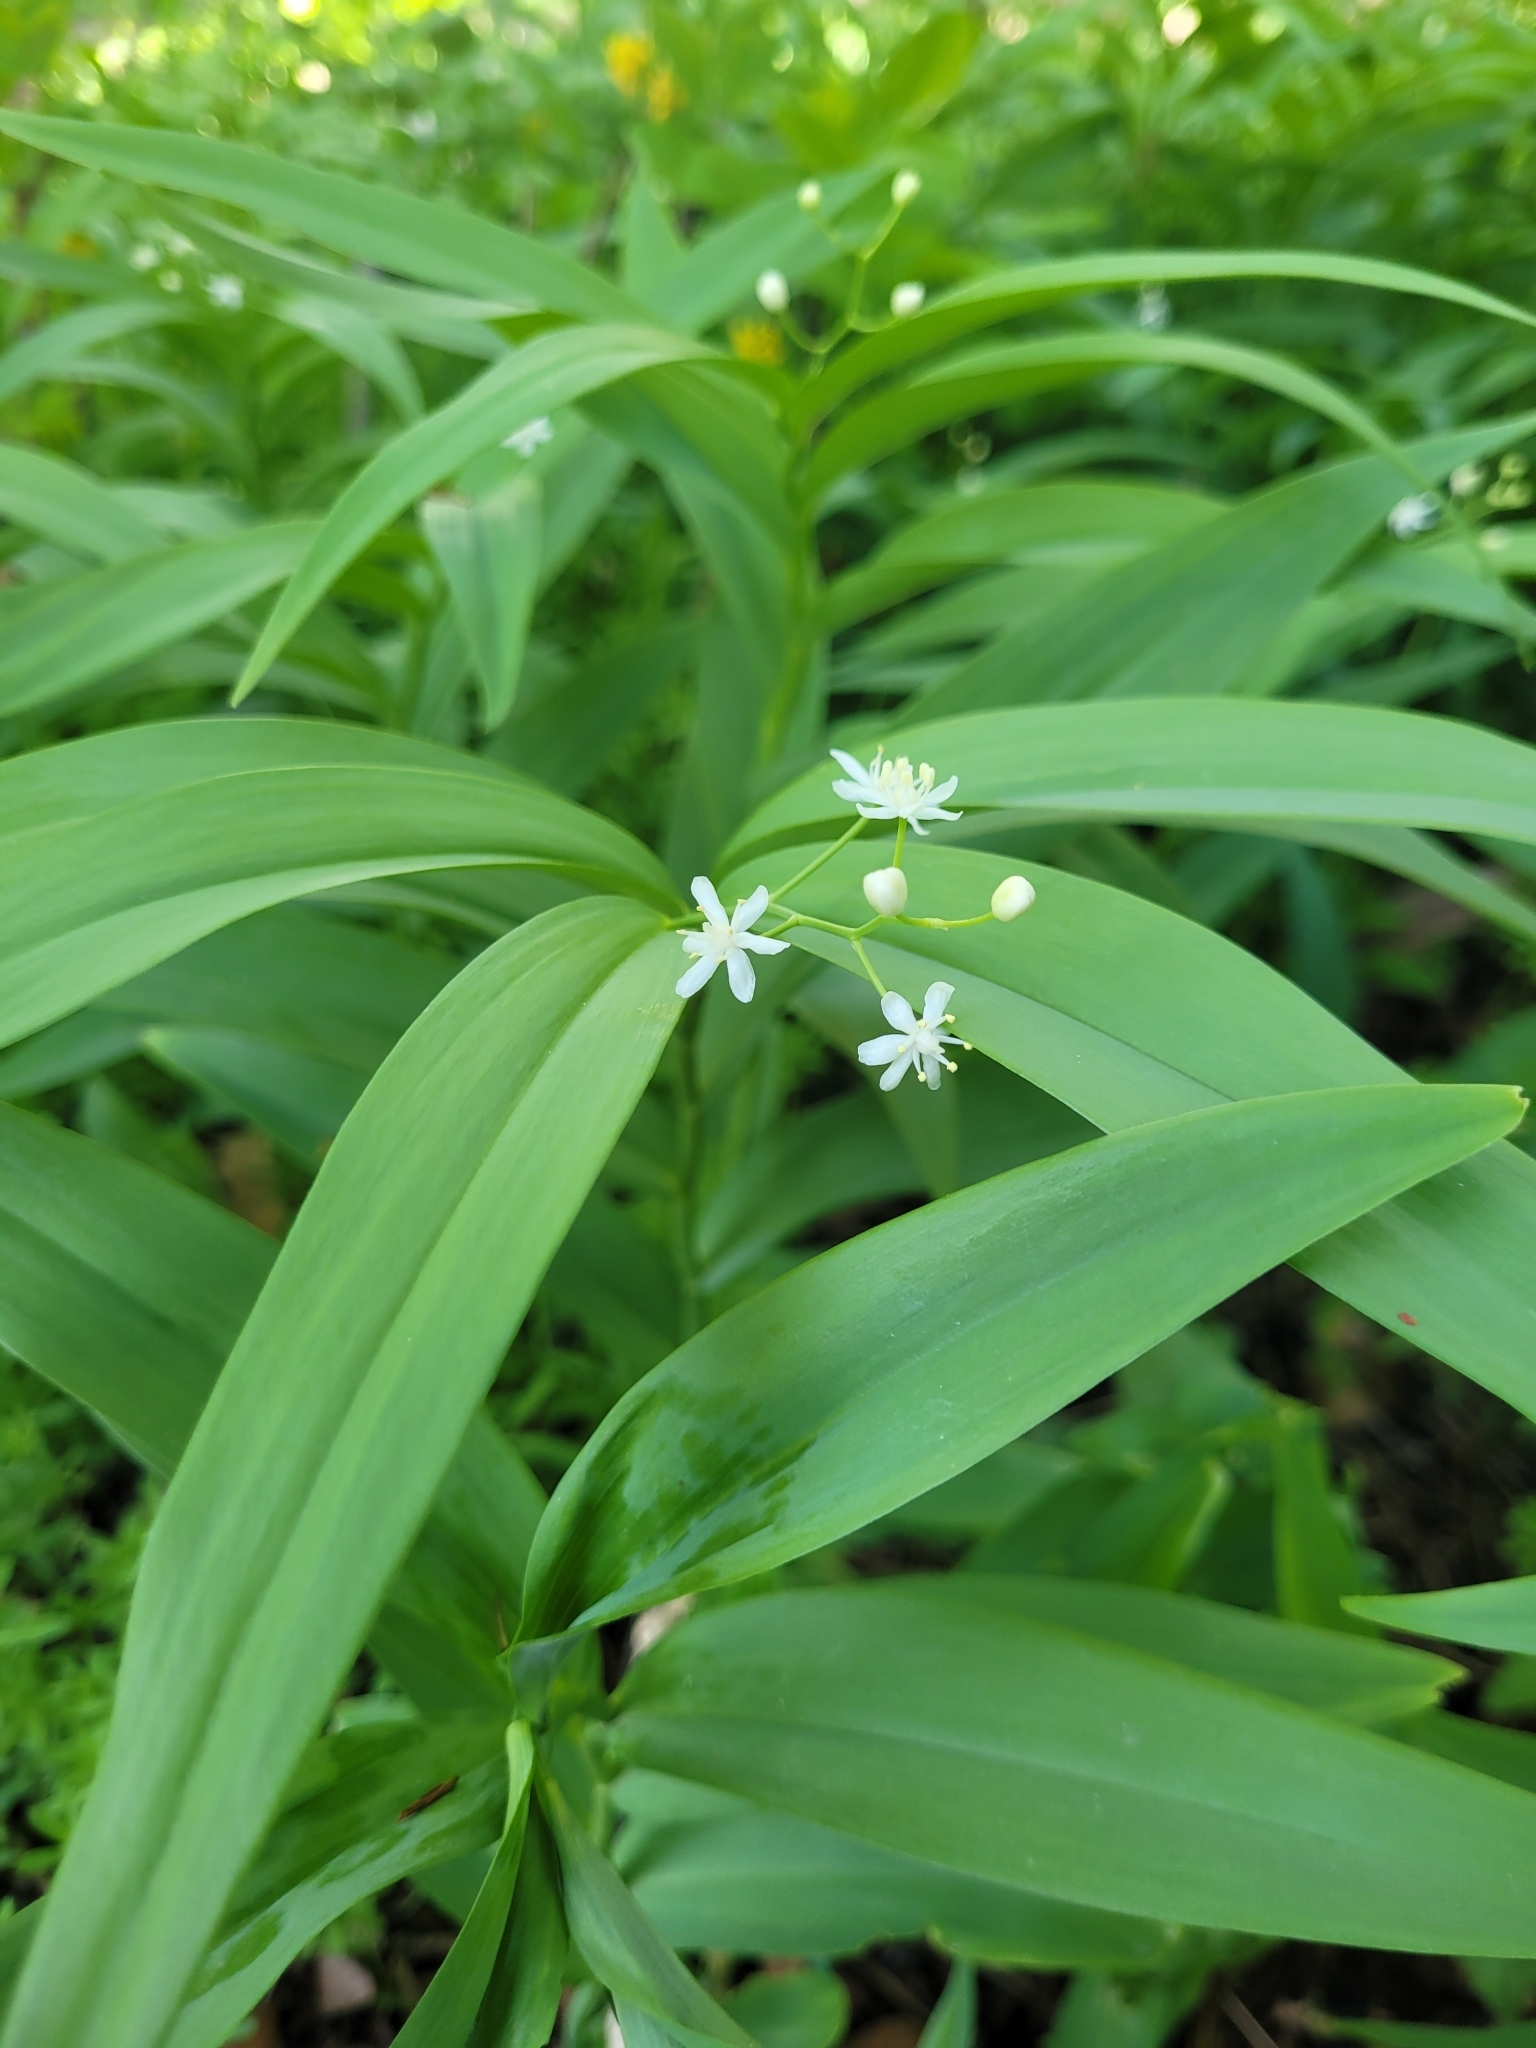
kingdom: Plantae
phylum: Tracheophyta
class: Liliopsida
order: Asparagales
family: Asparagaceae
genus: Maianthemum
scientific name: Maianthemum stellatum
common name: Little false solomon's seal
